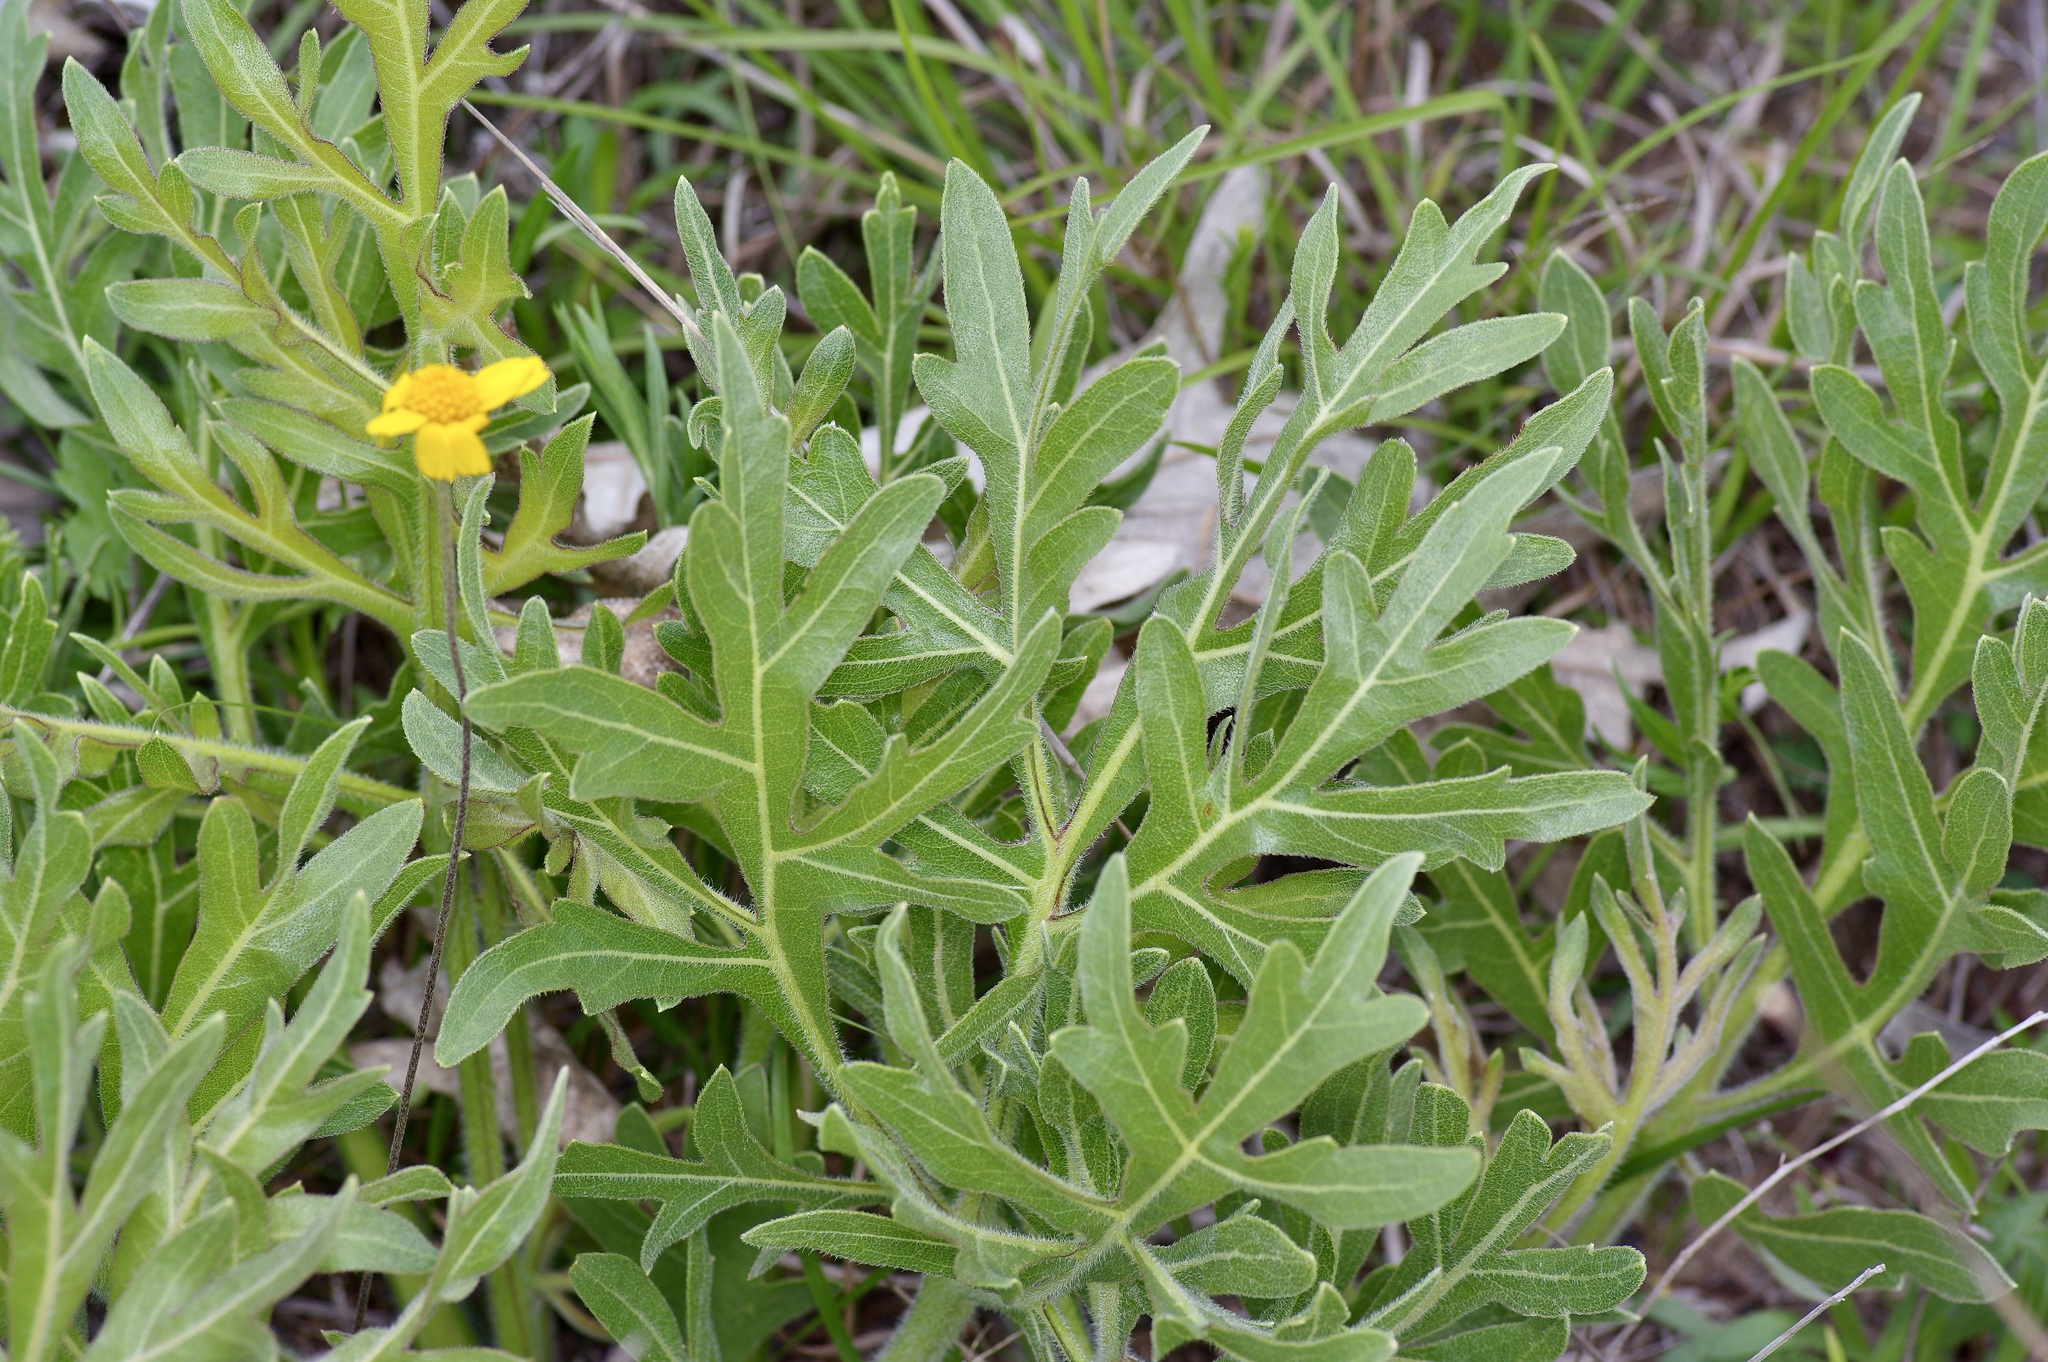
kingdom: Plantae
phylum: Tracheophyta
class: Magnoliopsida
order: Asterales
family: Asteraceae
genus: Silphium
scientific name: Silphium albiflorum
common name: White rosinweed
